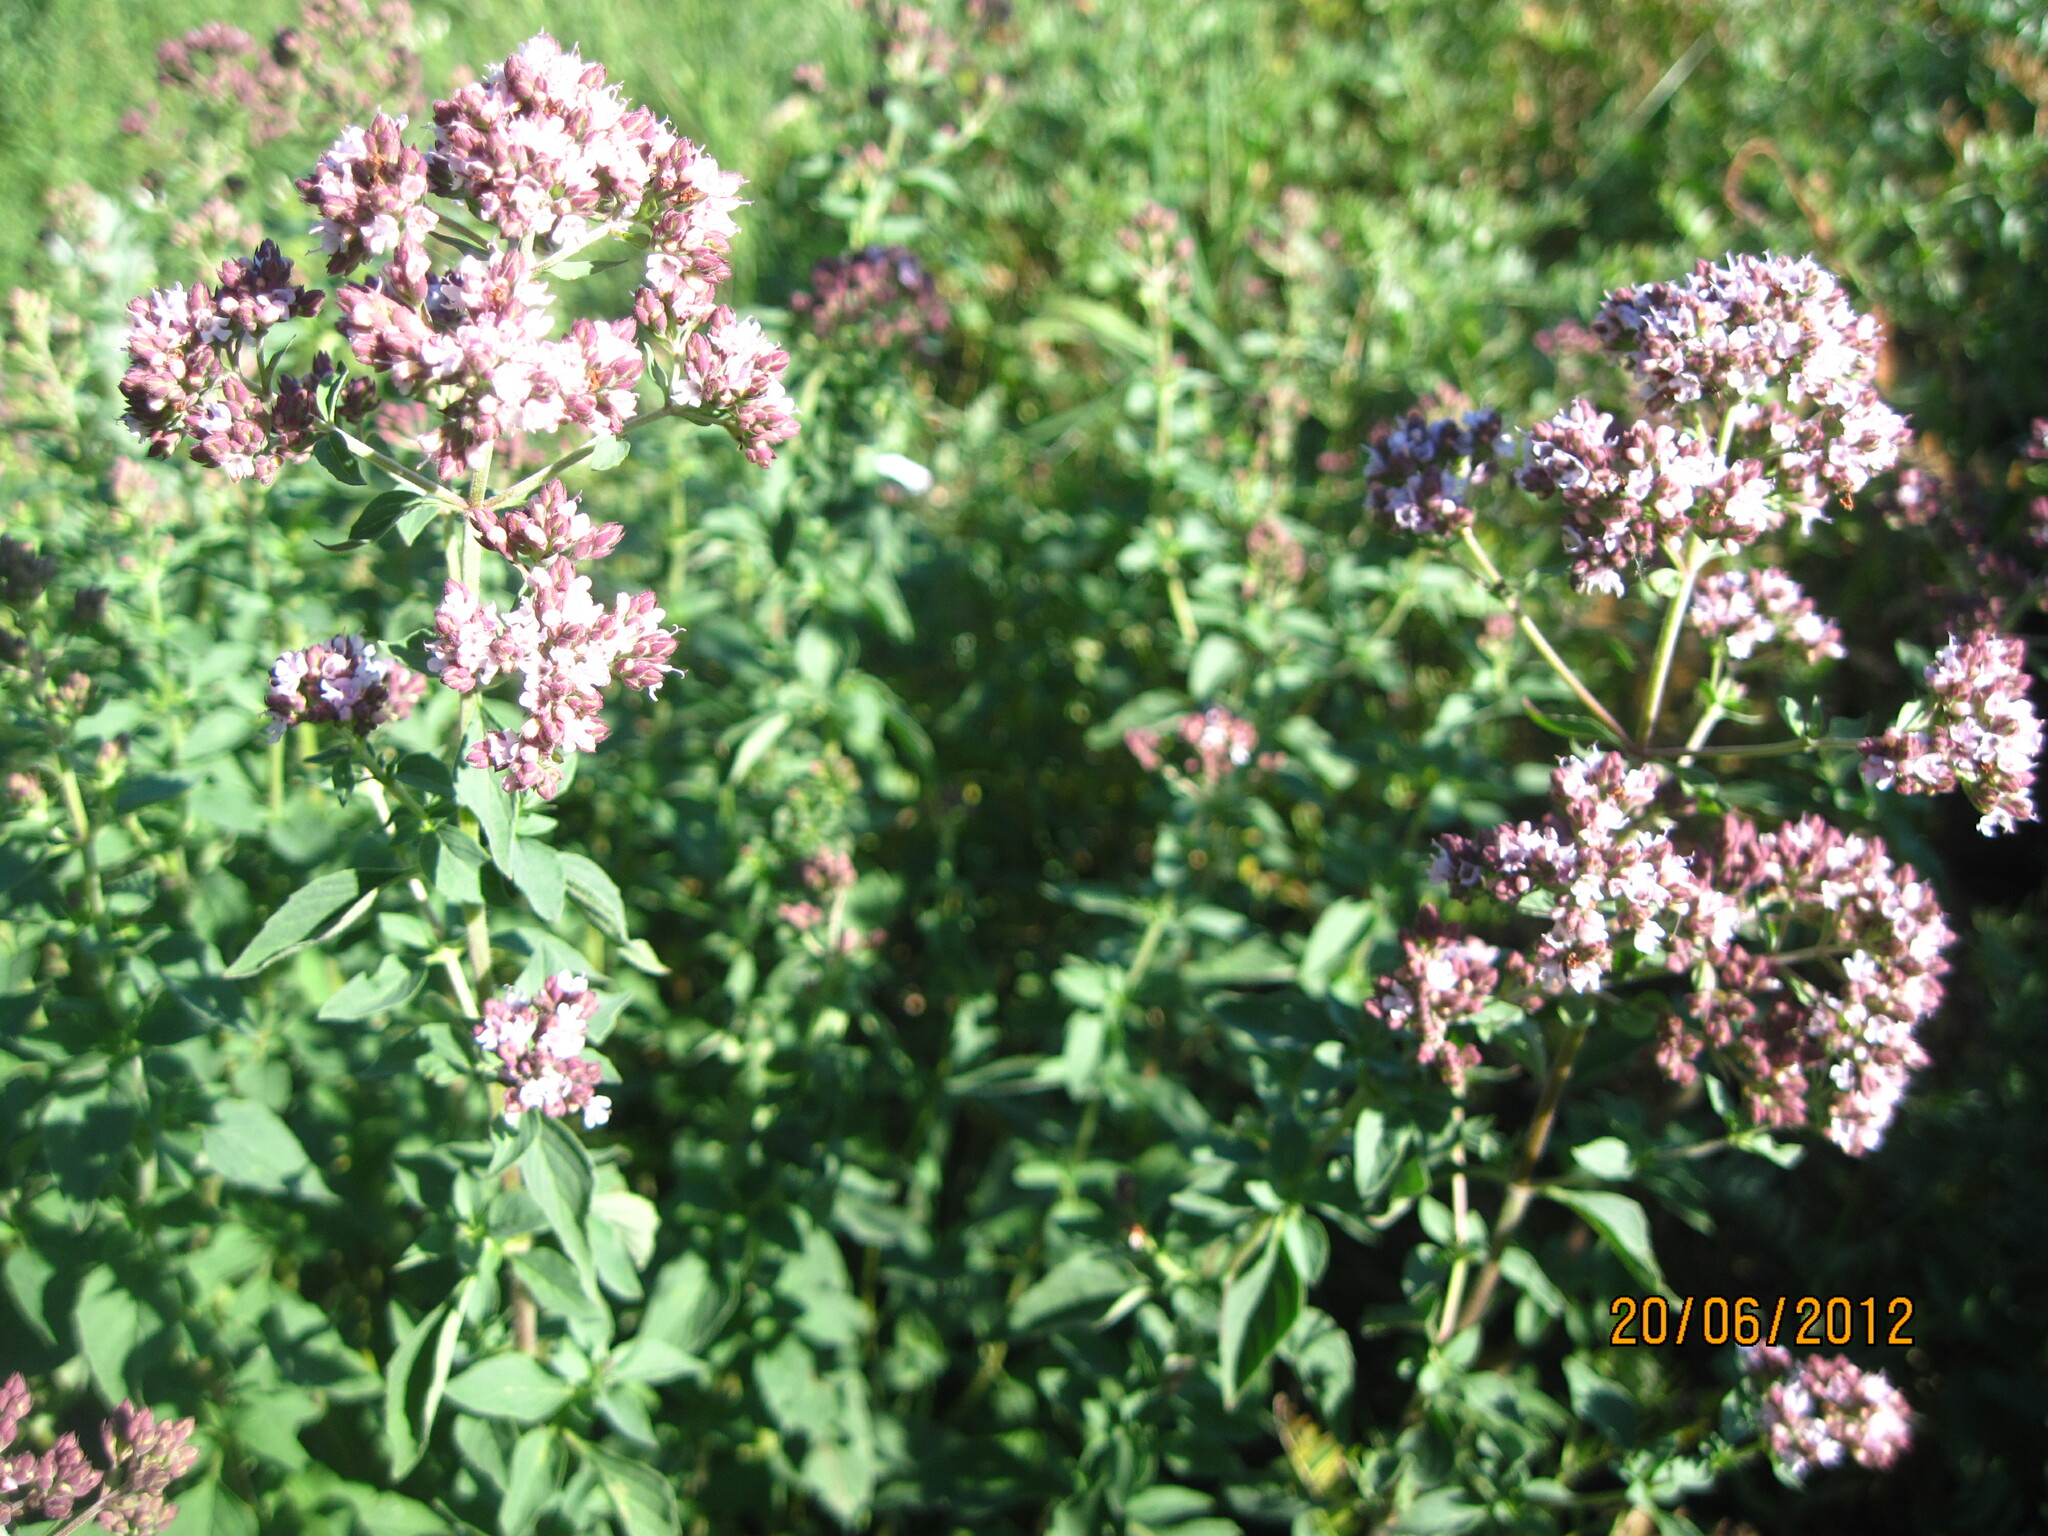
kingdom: Plantae
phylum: Tracheophyta
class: Magnoliopsida
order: Lamiales
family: Lamiaceae
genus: Origanum
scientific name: Origanum vulgare
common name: Wild marjoram
